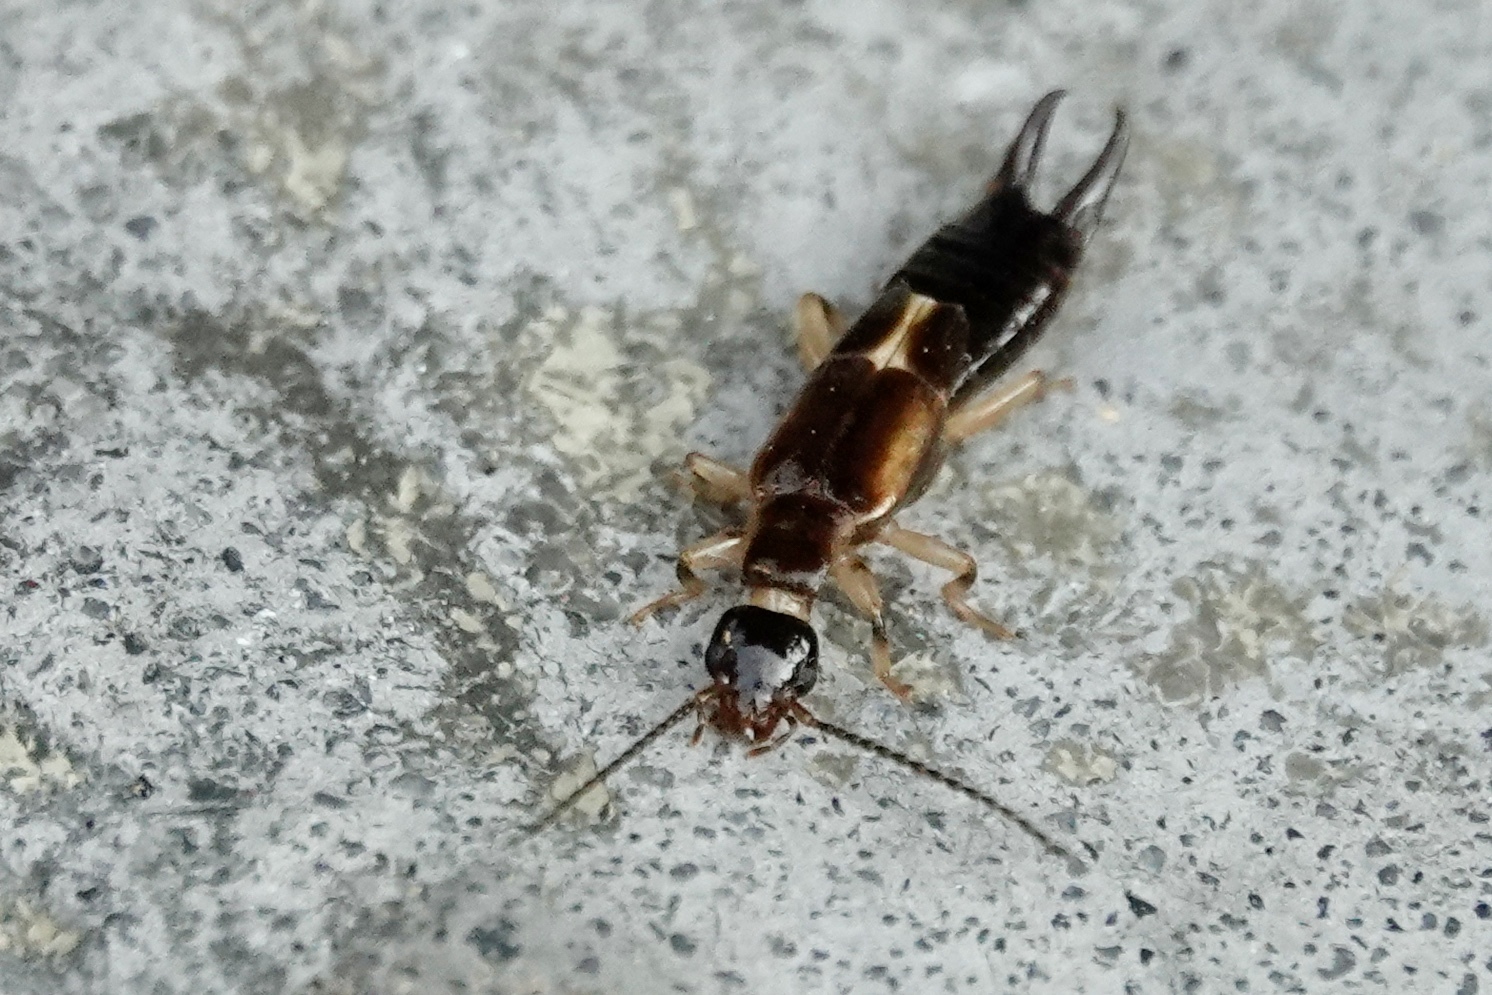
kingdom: Animalia
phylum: Arthropoda
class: Insecta
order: Dermaptera
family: Anisolabididae
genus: Euborellia
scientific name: Euborellia cincticollis
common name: African earwig
